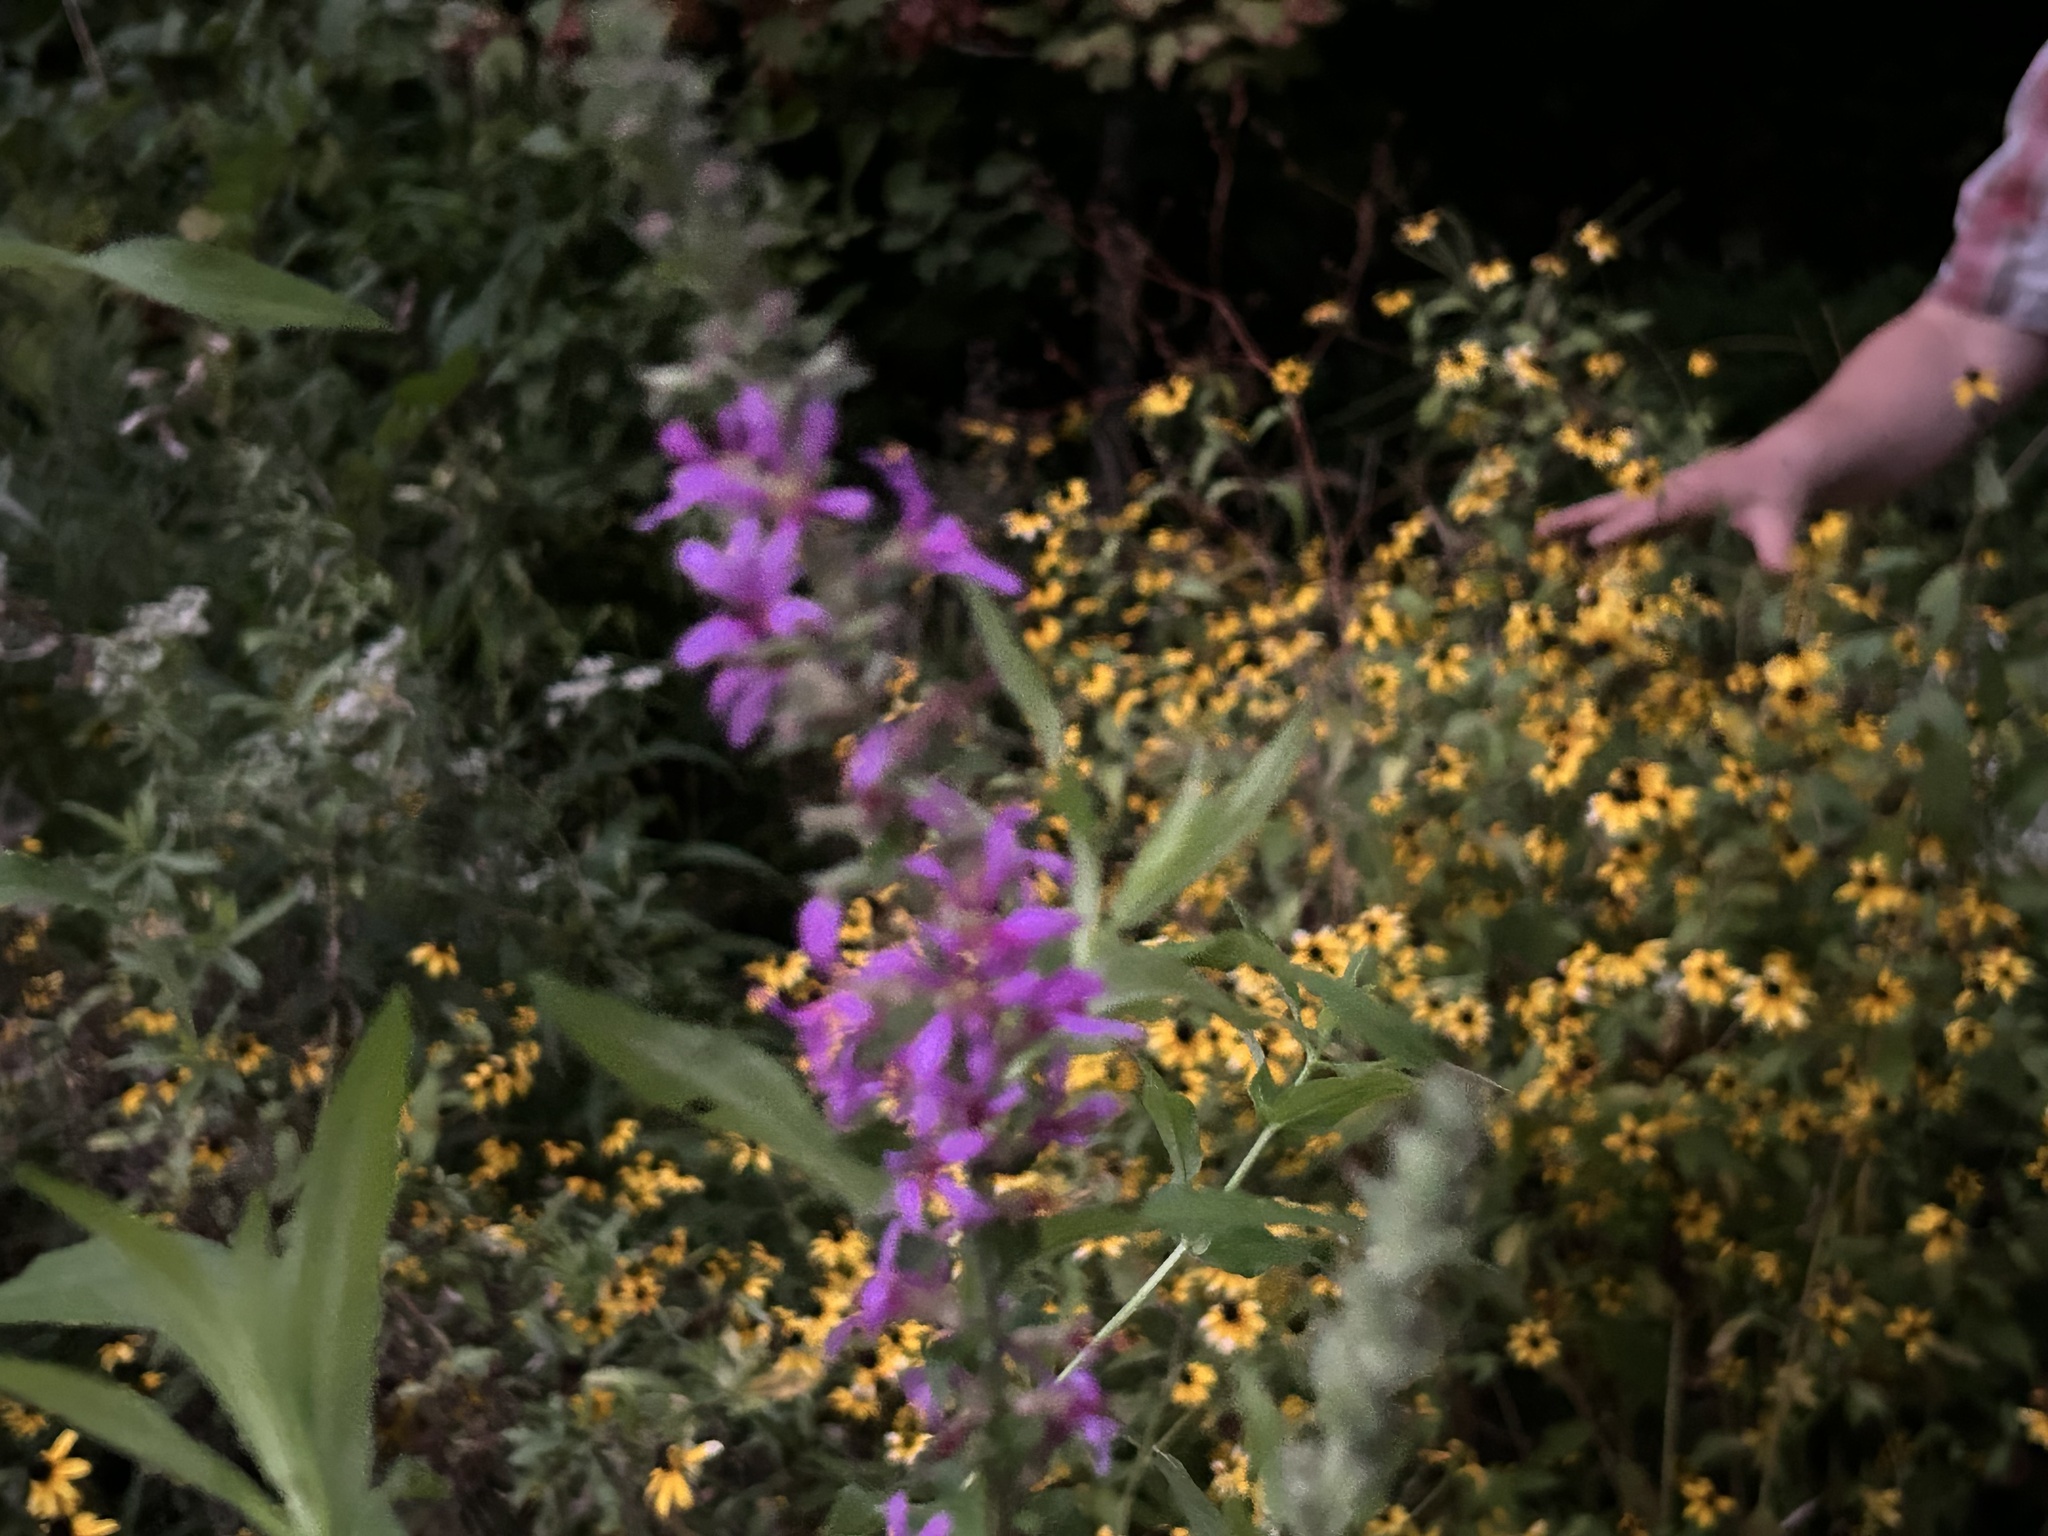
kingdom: Plantae
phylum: Tracheophyta
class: Magnoliopsida
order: Myrtales
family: Lythraceae
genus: Lythrum
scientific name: Lythrum salicaria
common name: Purple loosestrife
